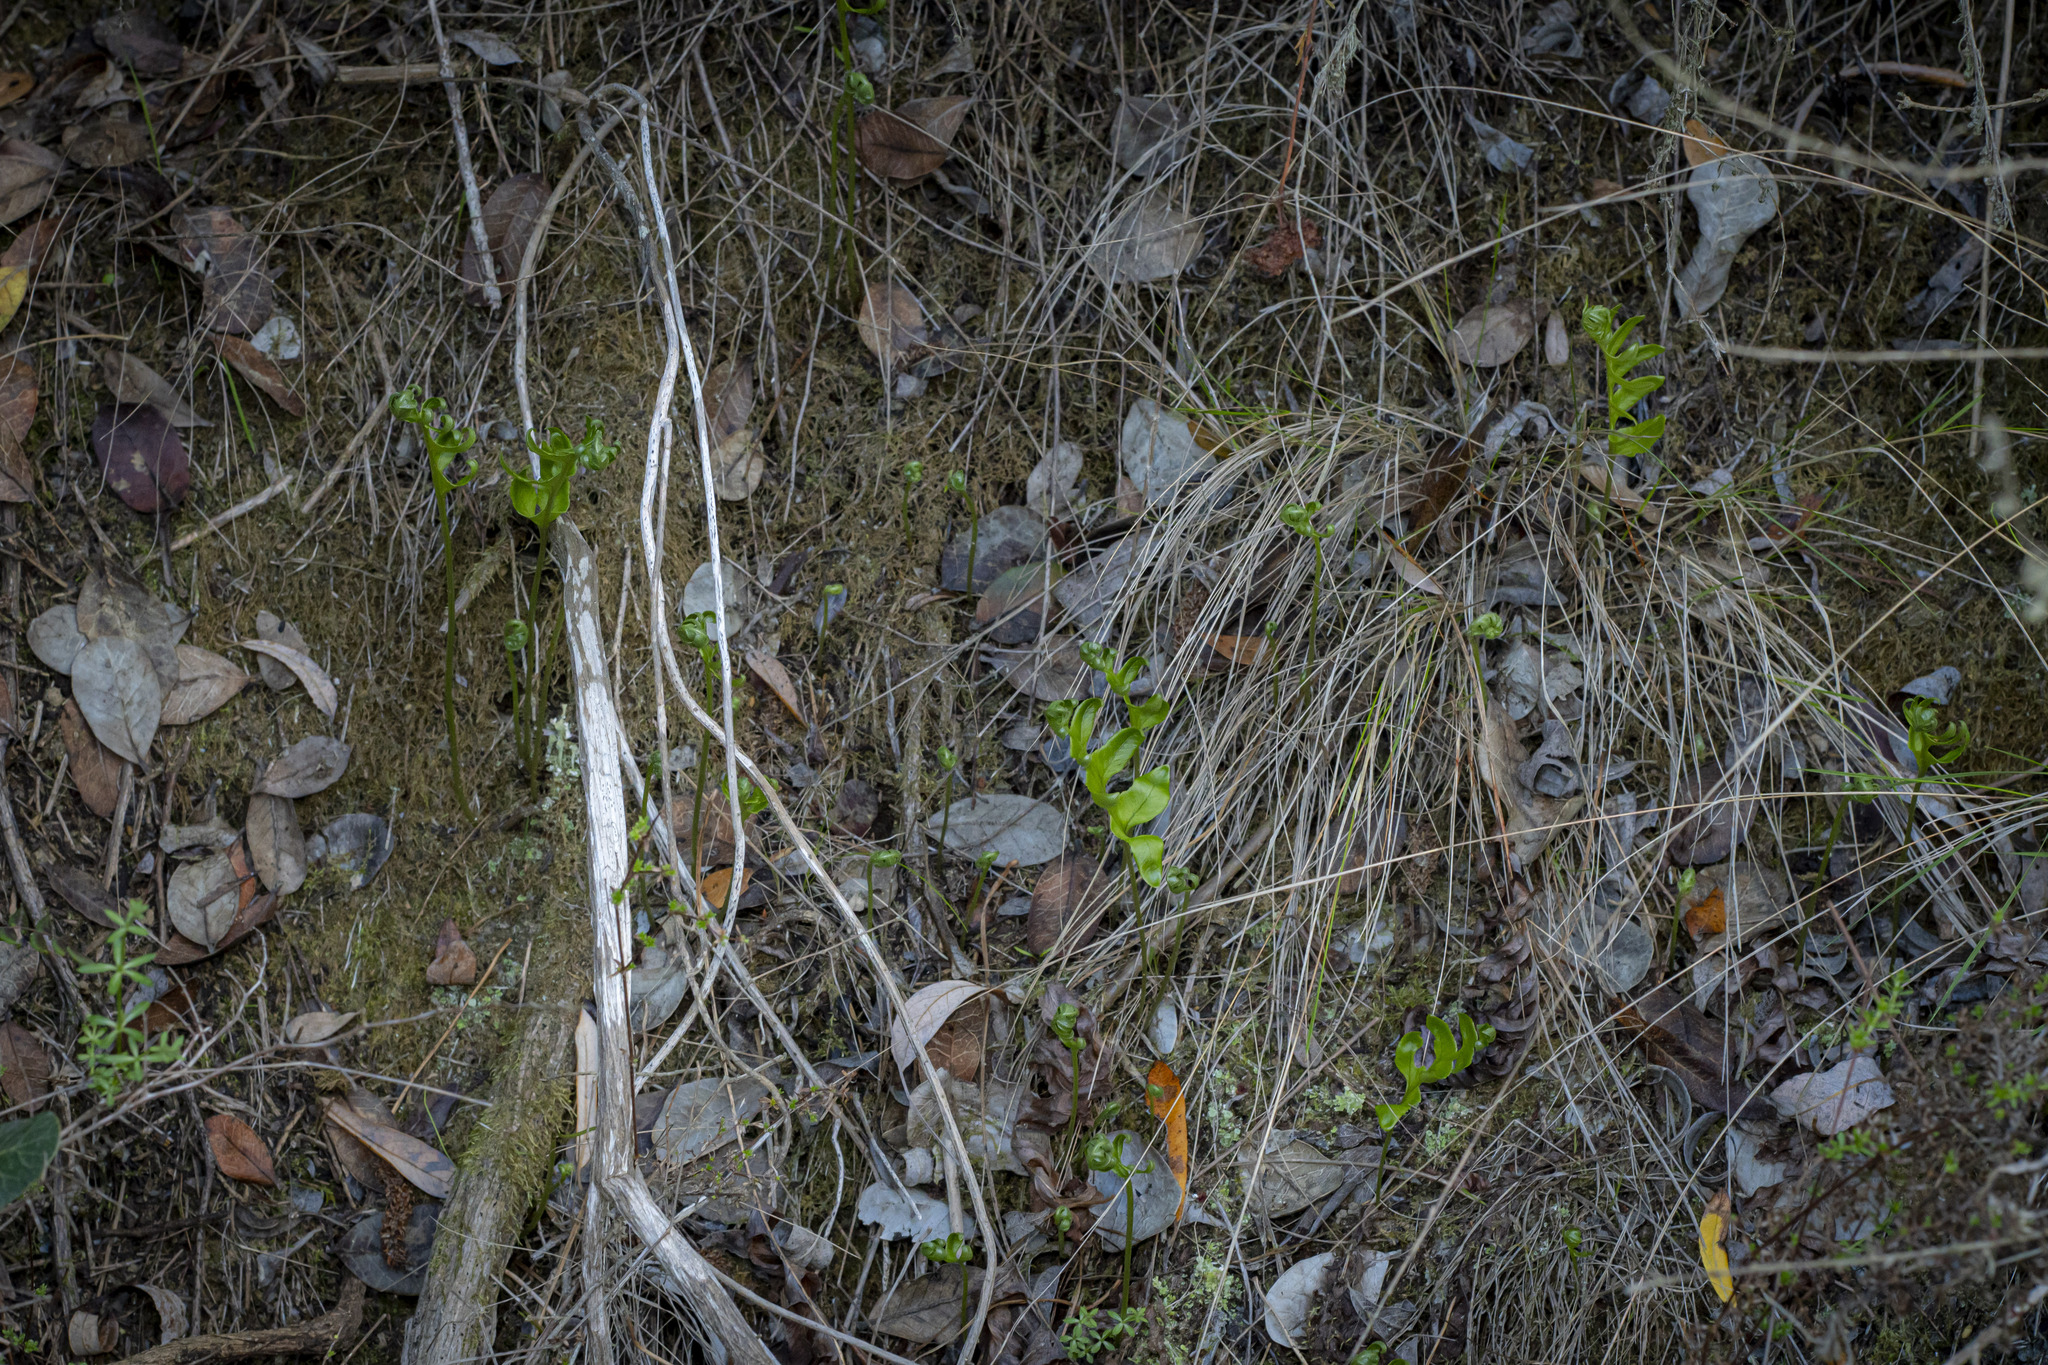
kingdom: Plantae
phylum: Tracheophyta
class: Polypodiopsida
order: Polypodiales
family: Polypodiaceae
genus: Polypodium
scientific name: Polypodium californicum
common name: California polypody
